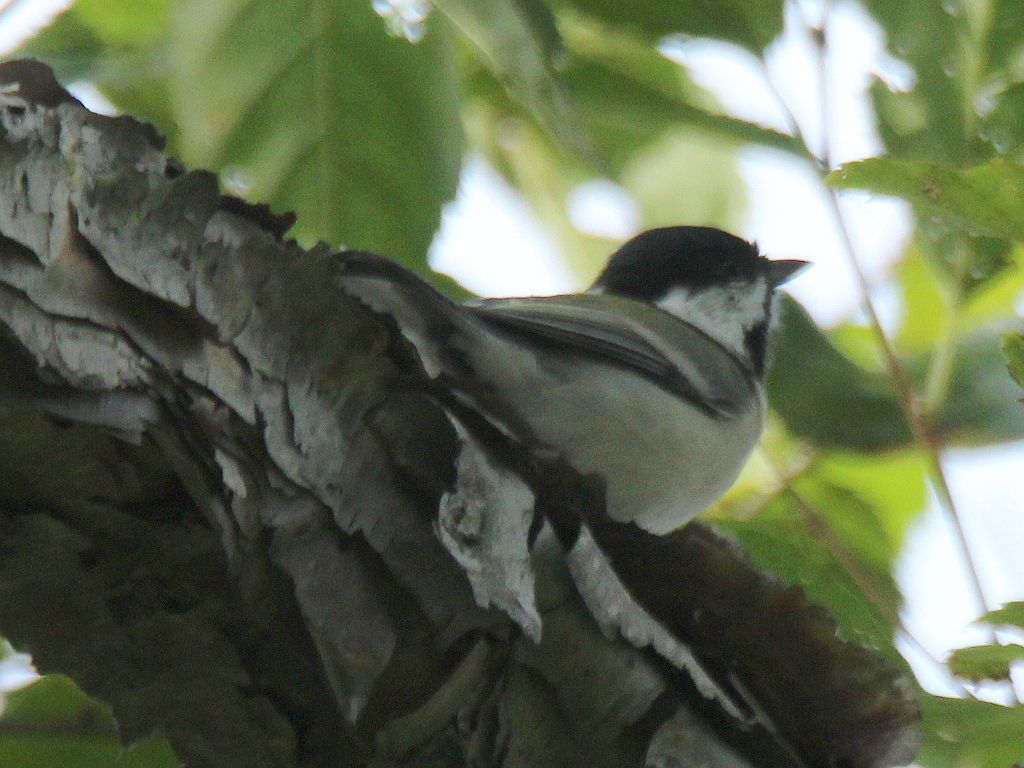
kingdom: Animalia
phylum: Chordata
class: Aves
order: Passeriformes
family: Paridae
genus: Parus
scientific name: Parus minor
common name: Japanese tit
